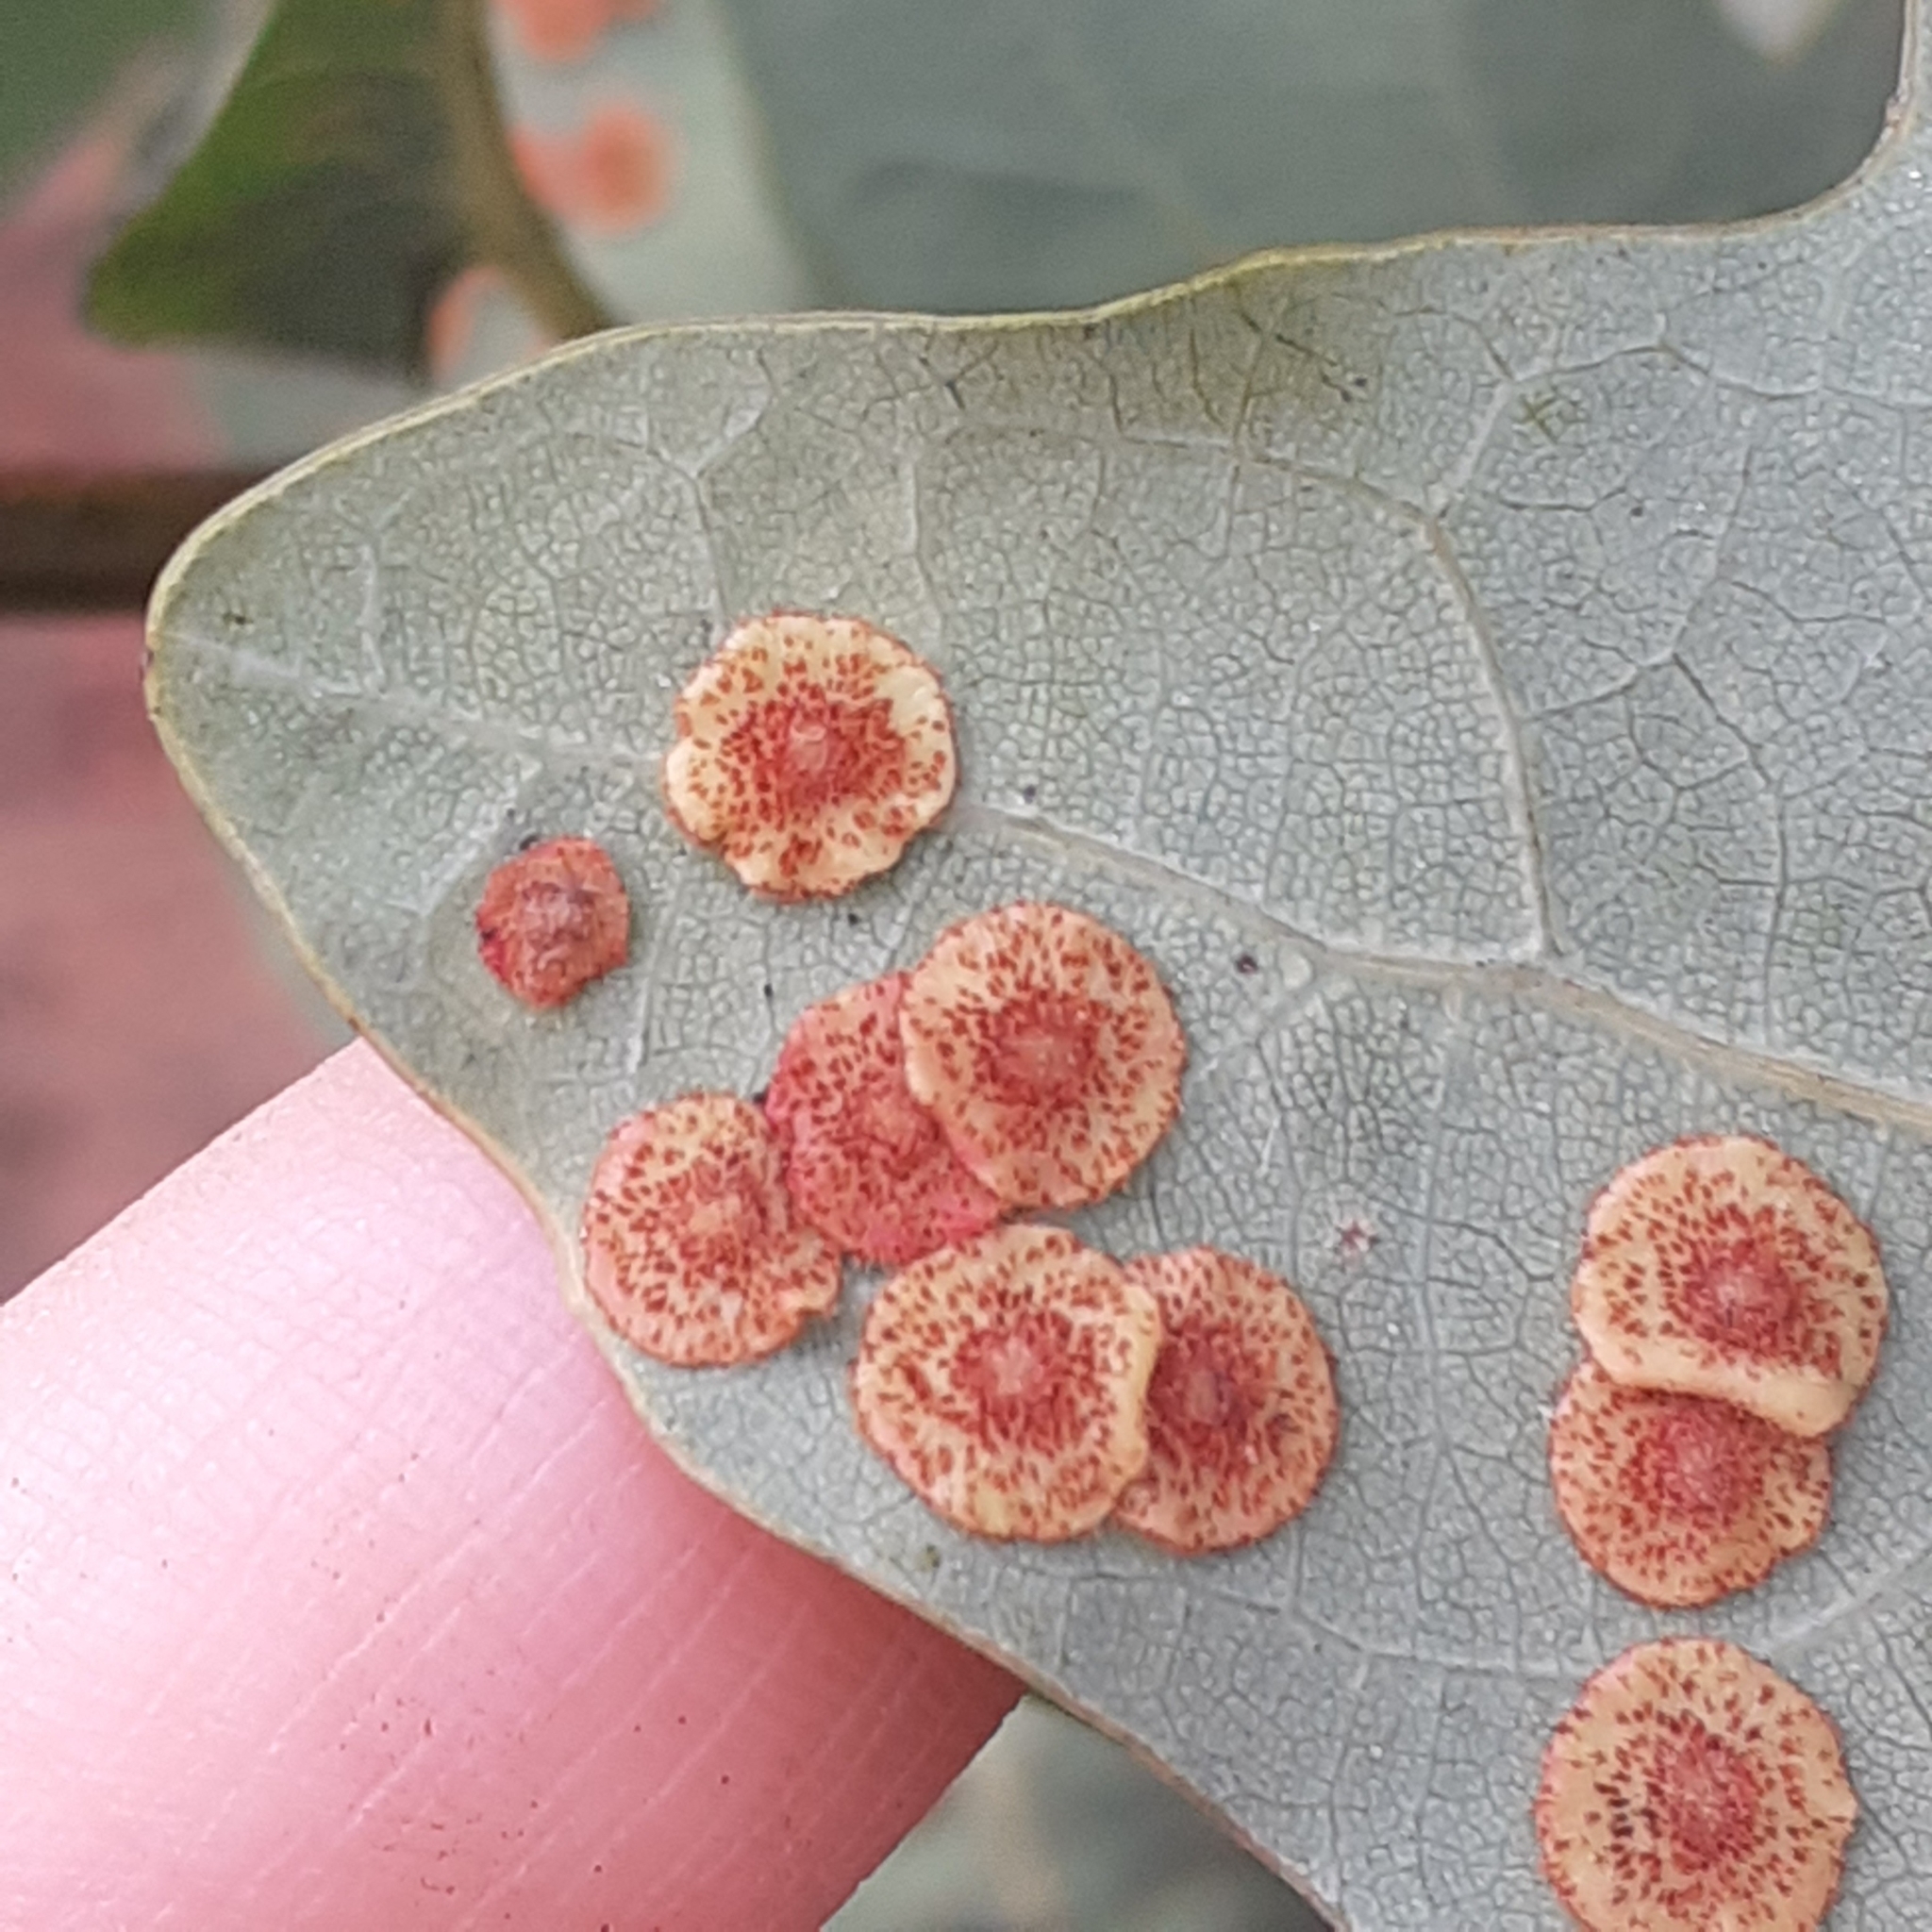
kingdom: Animalia
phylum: Arthropoda
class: Insecta
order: Hymenoptera
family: Cynipidae
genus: Neuroterus
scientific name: Neuroterus quercusbaccarum
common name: Common spangle gall
